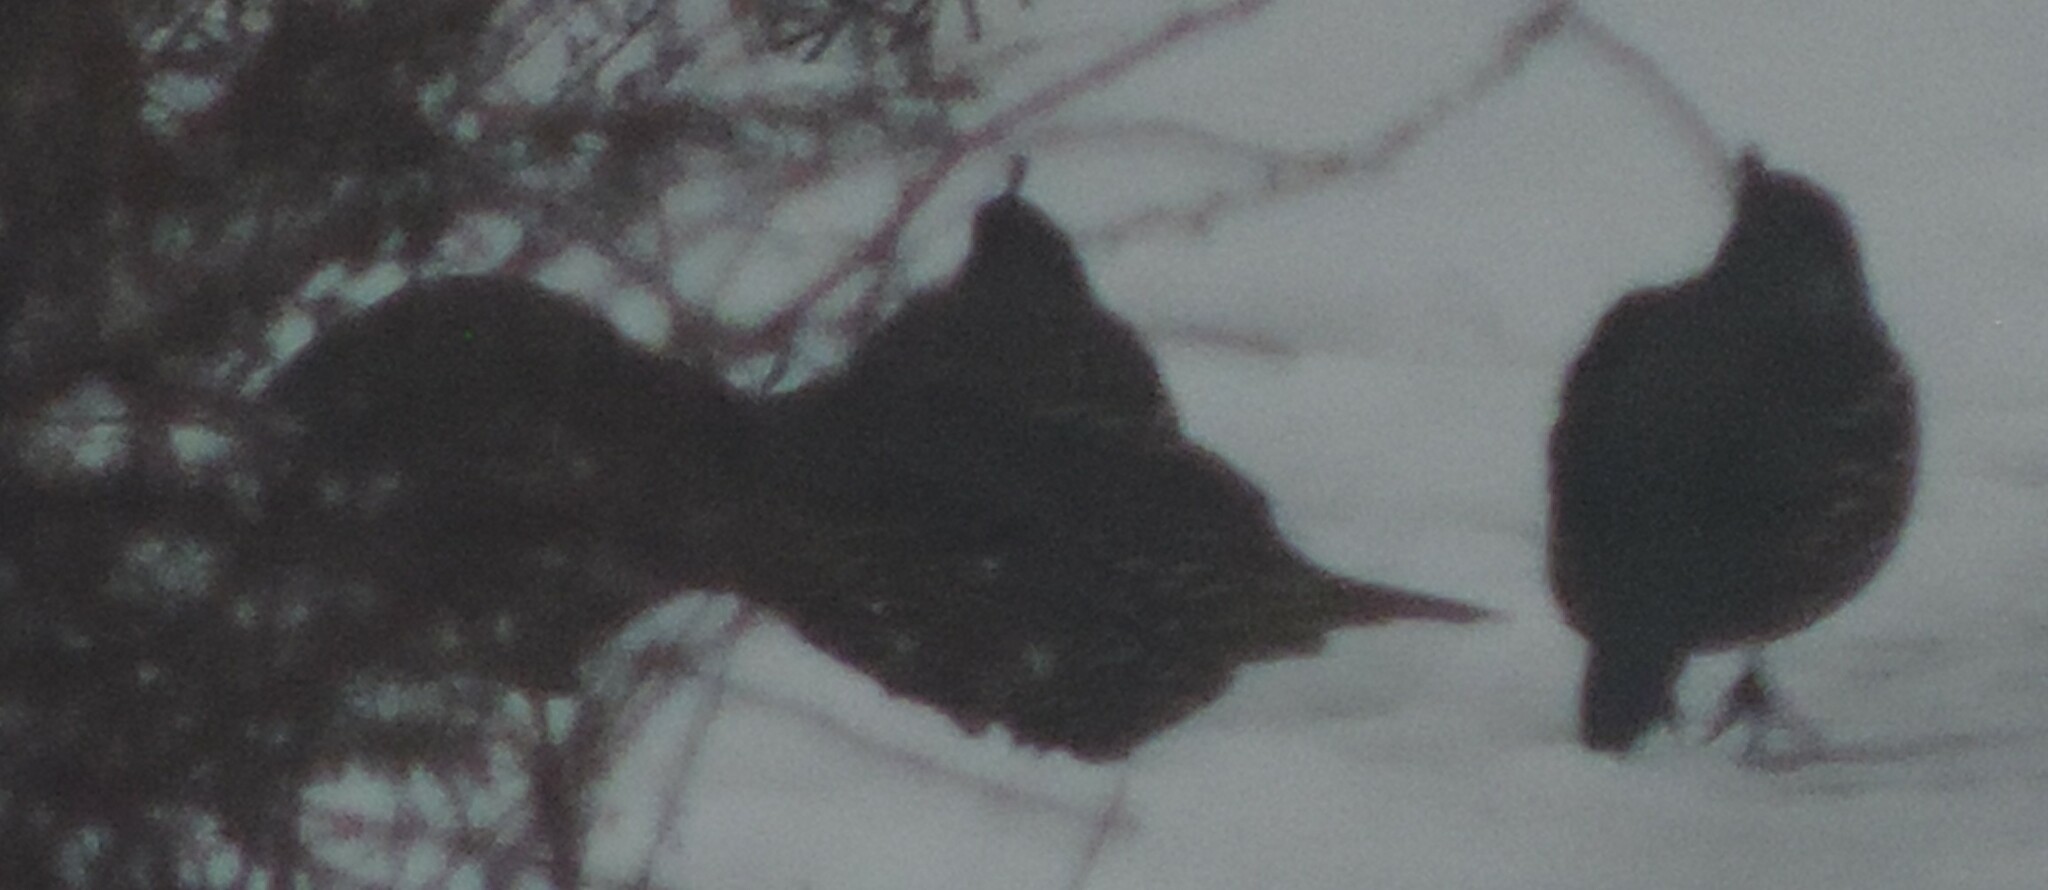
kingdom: Animalia
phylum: Chordata
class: Aves
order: Galliformes
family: Odontophoridae
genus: Callipepla
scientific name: Callipepla californica
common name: California quail
